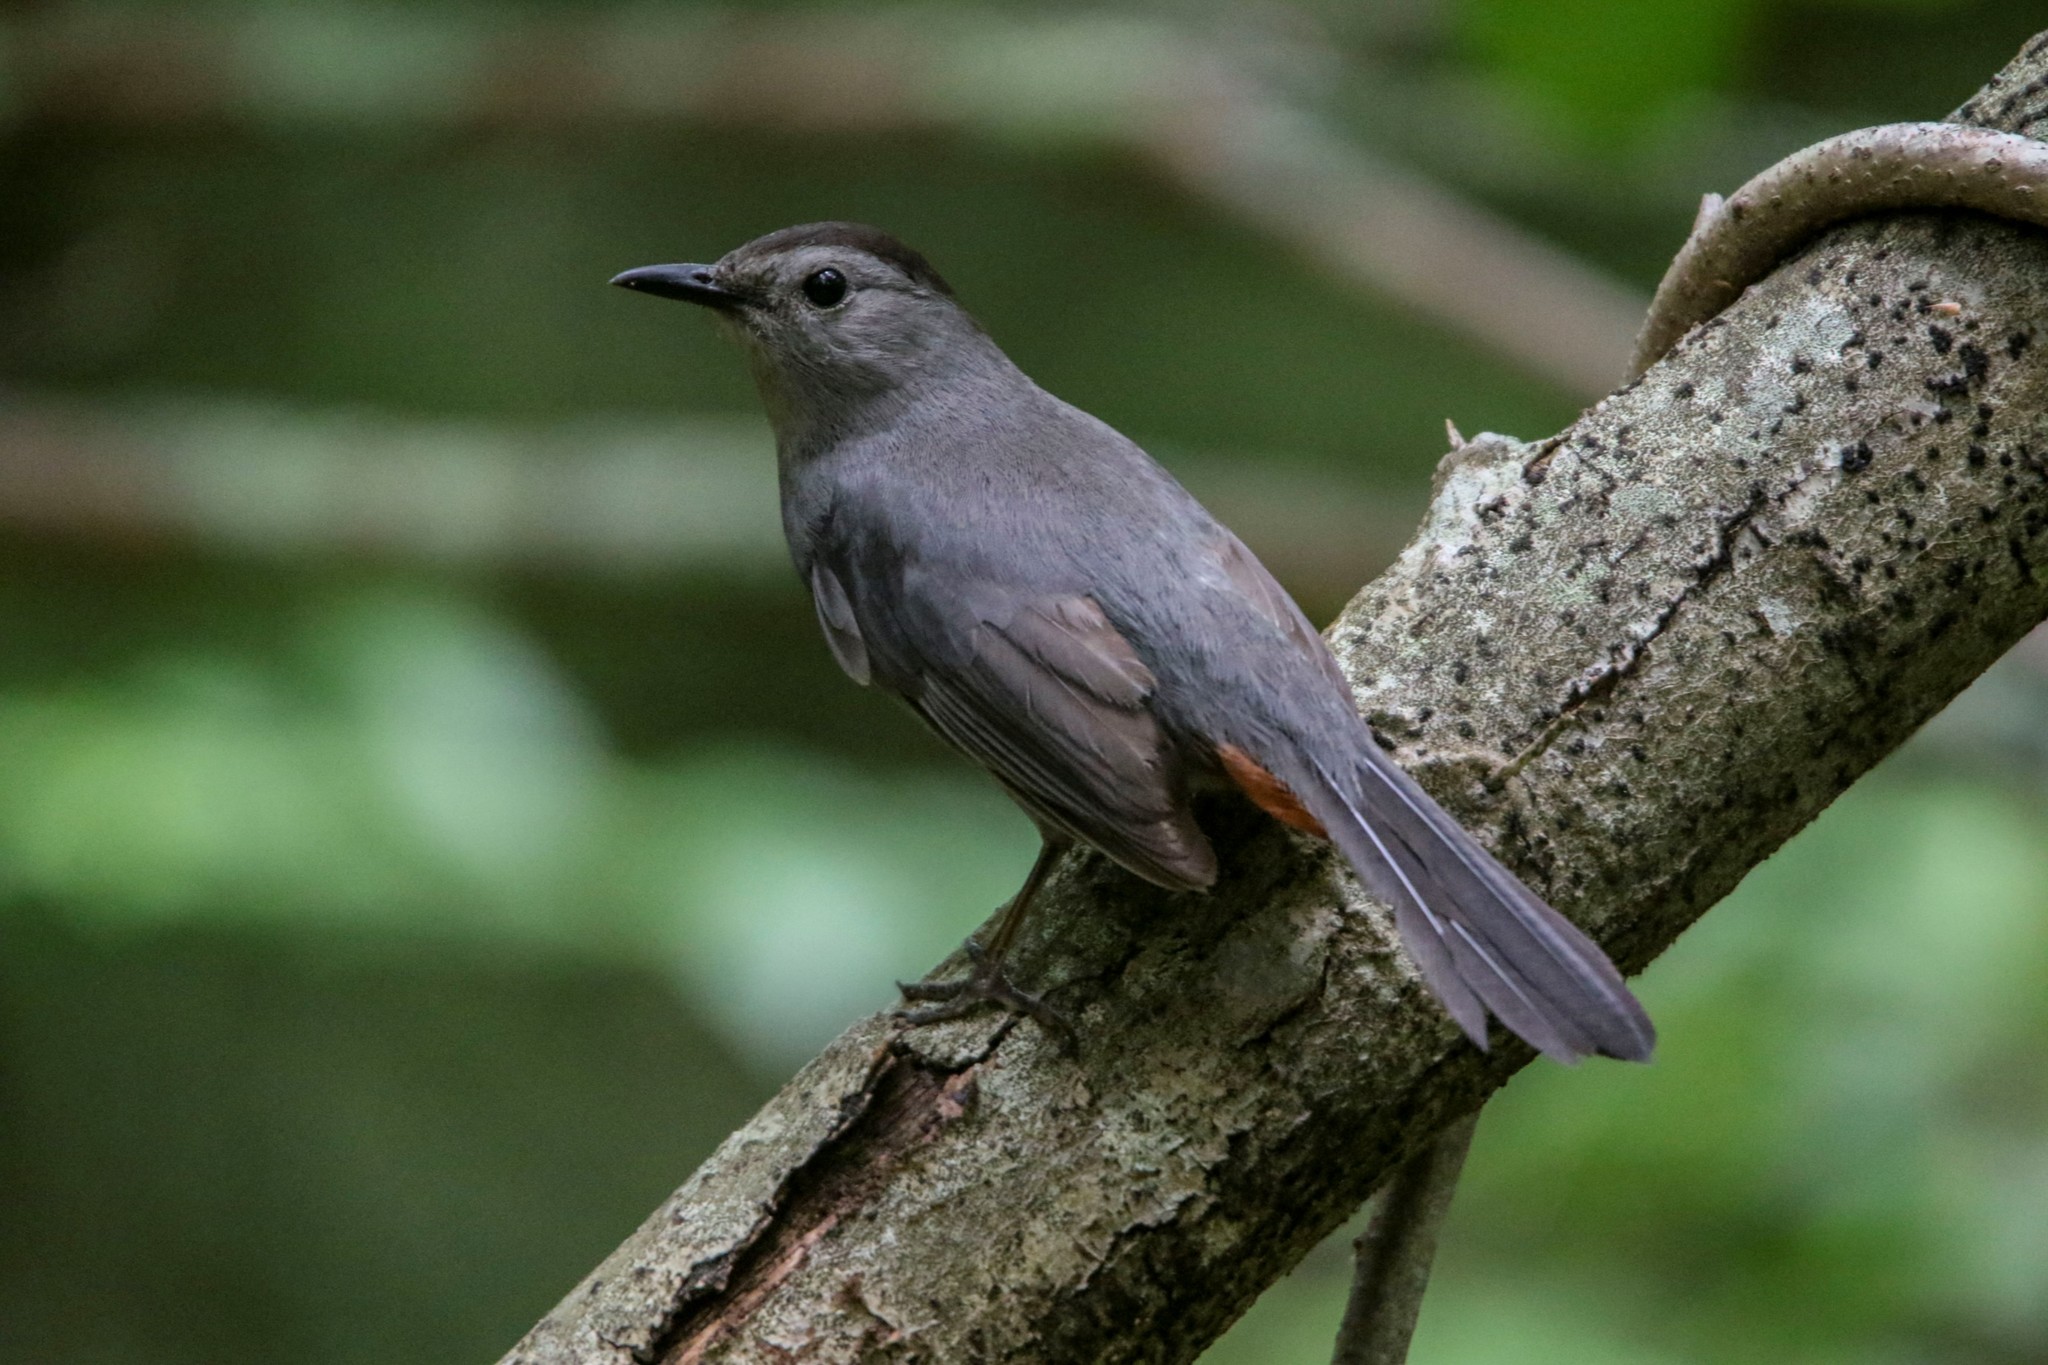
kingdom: Animalia
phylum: Chordata
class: Aves
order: Passeriformes
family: Mimidae
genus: Dumetella
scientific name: Dumetella carolinensis
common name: Gray catbird
